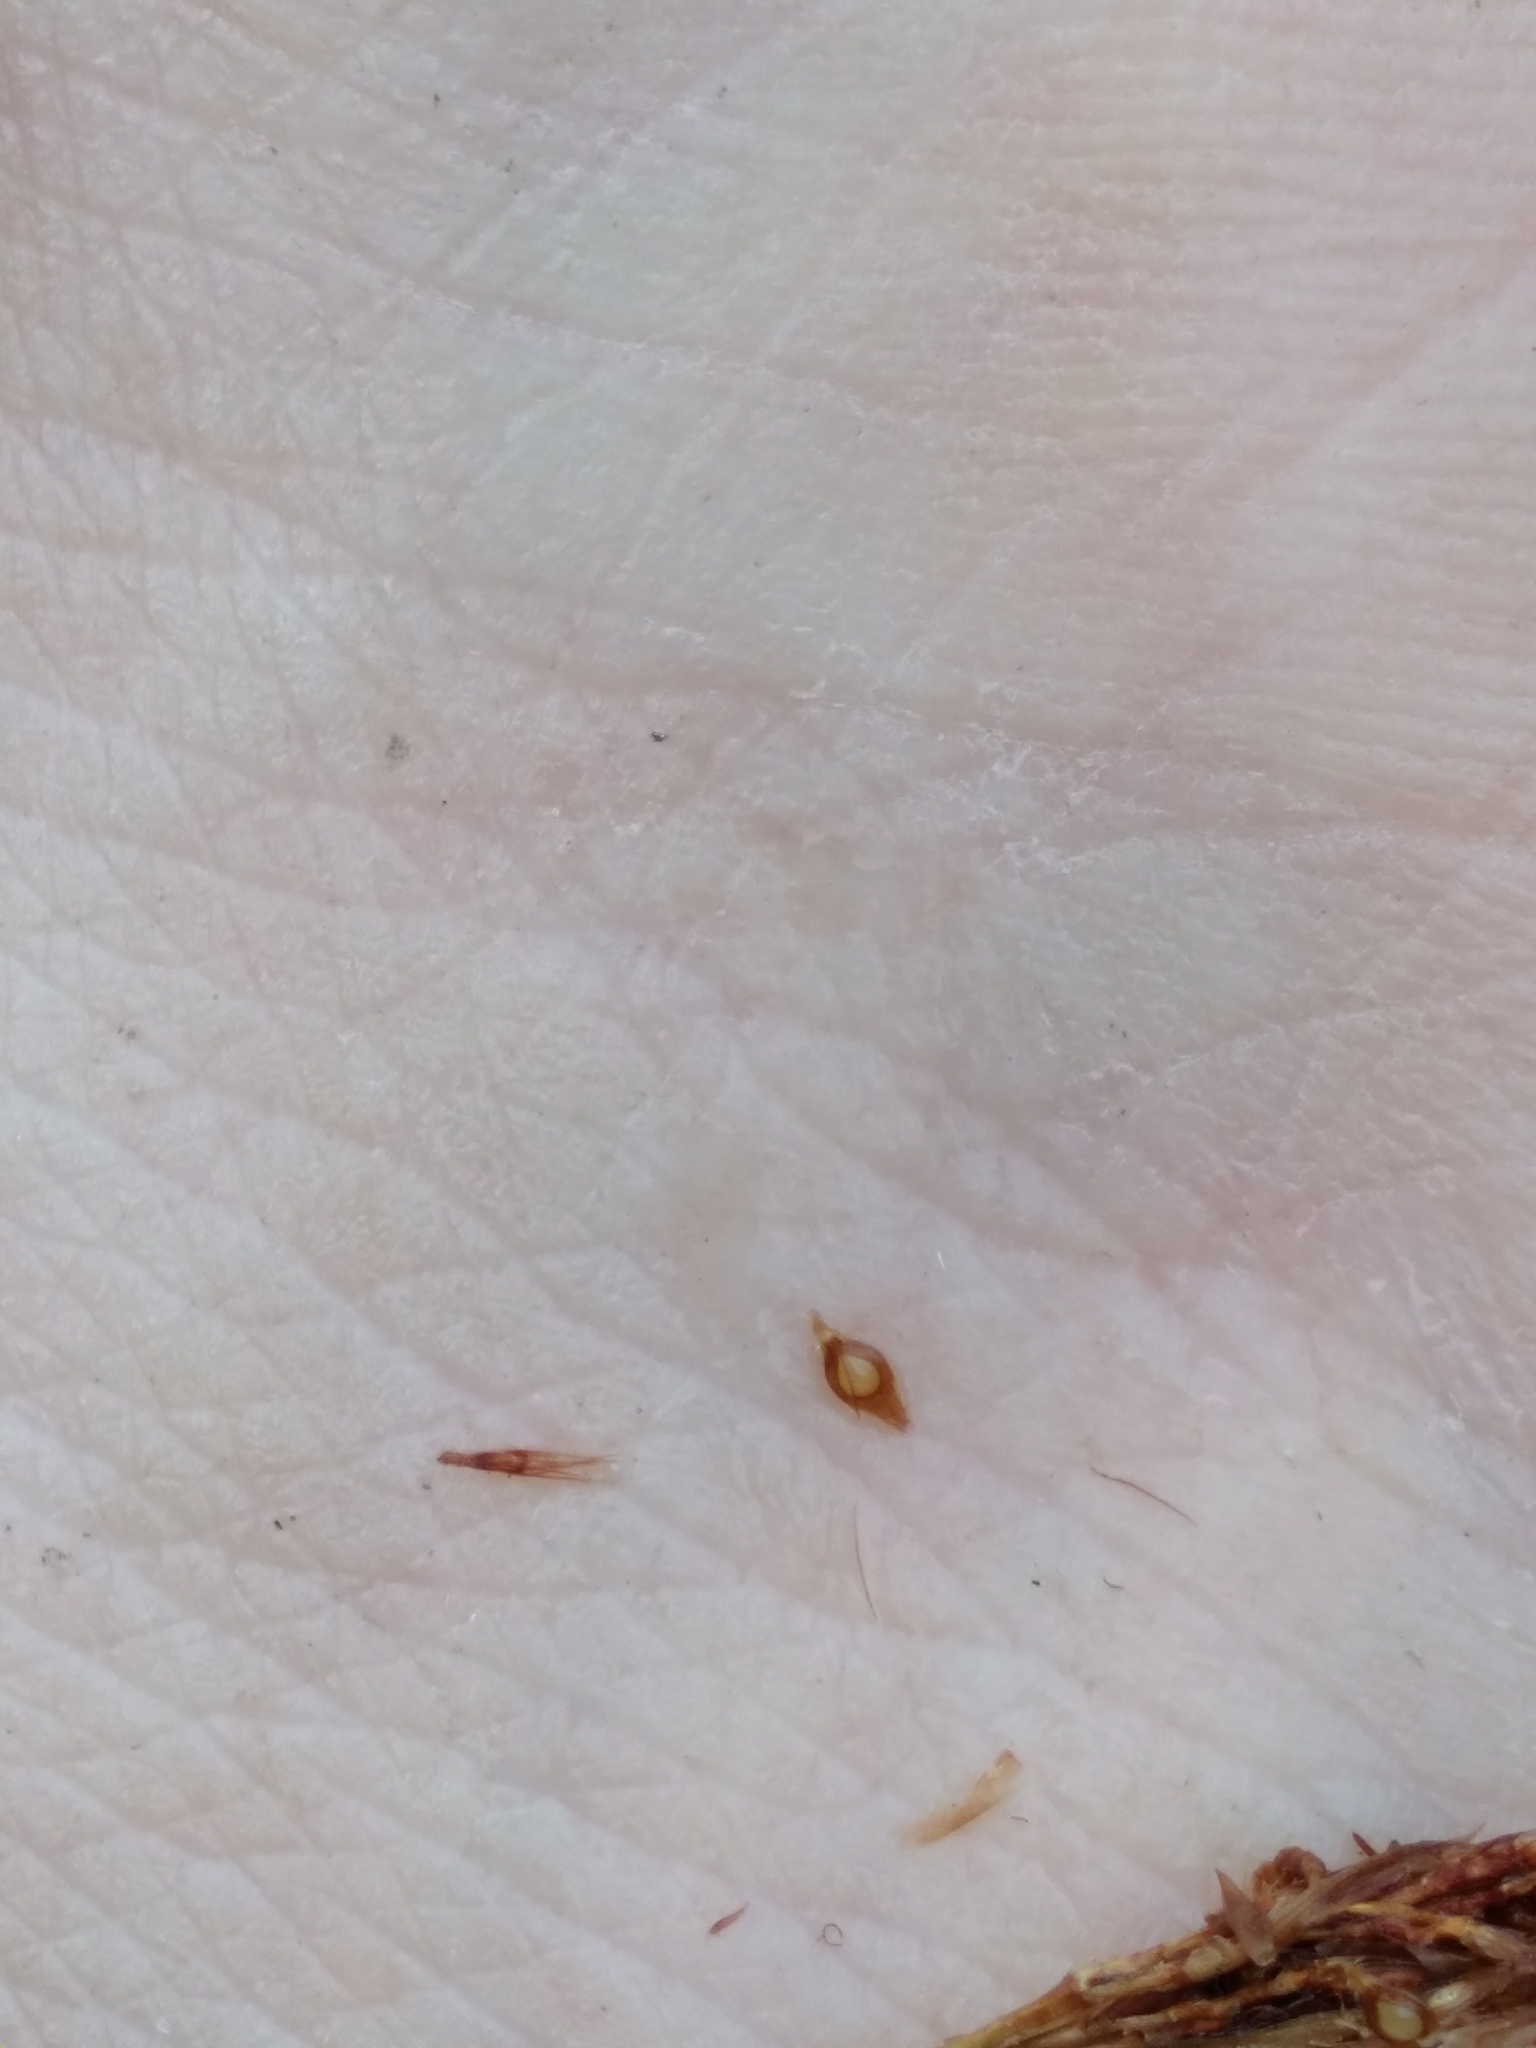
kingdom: Plantae
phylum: Tracheophyta
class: Liliopsida
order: Poales
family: Cyperaceae
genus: Rhynchospora
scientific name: Rhynchospora crinipes
